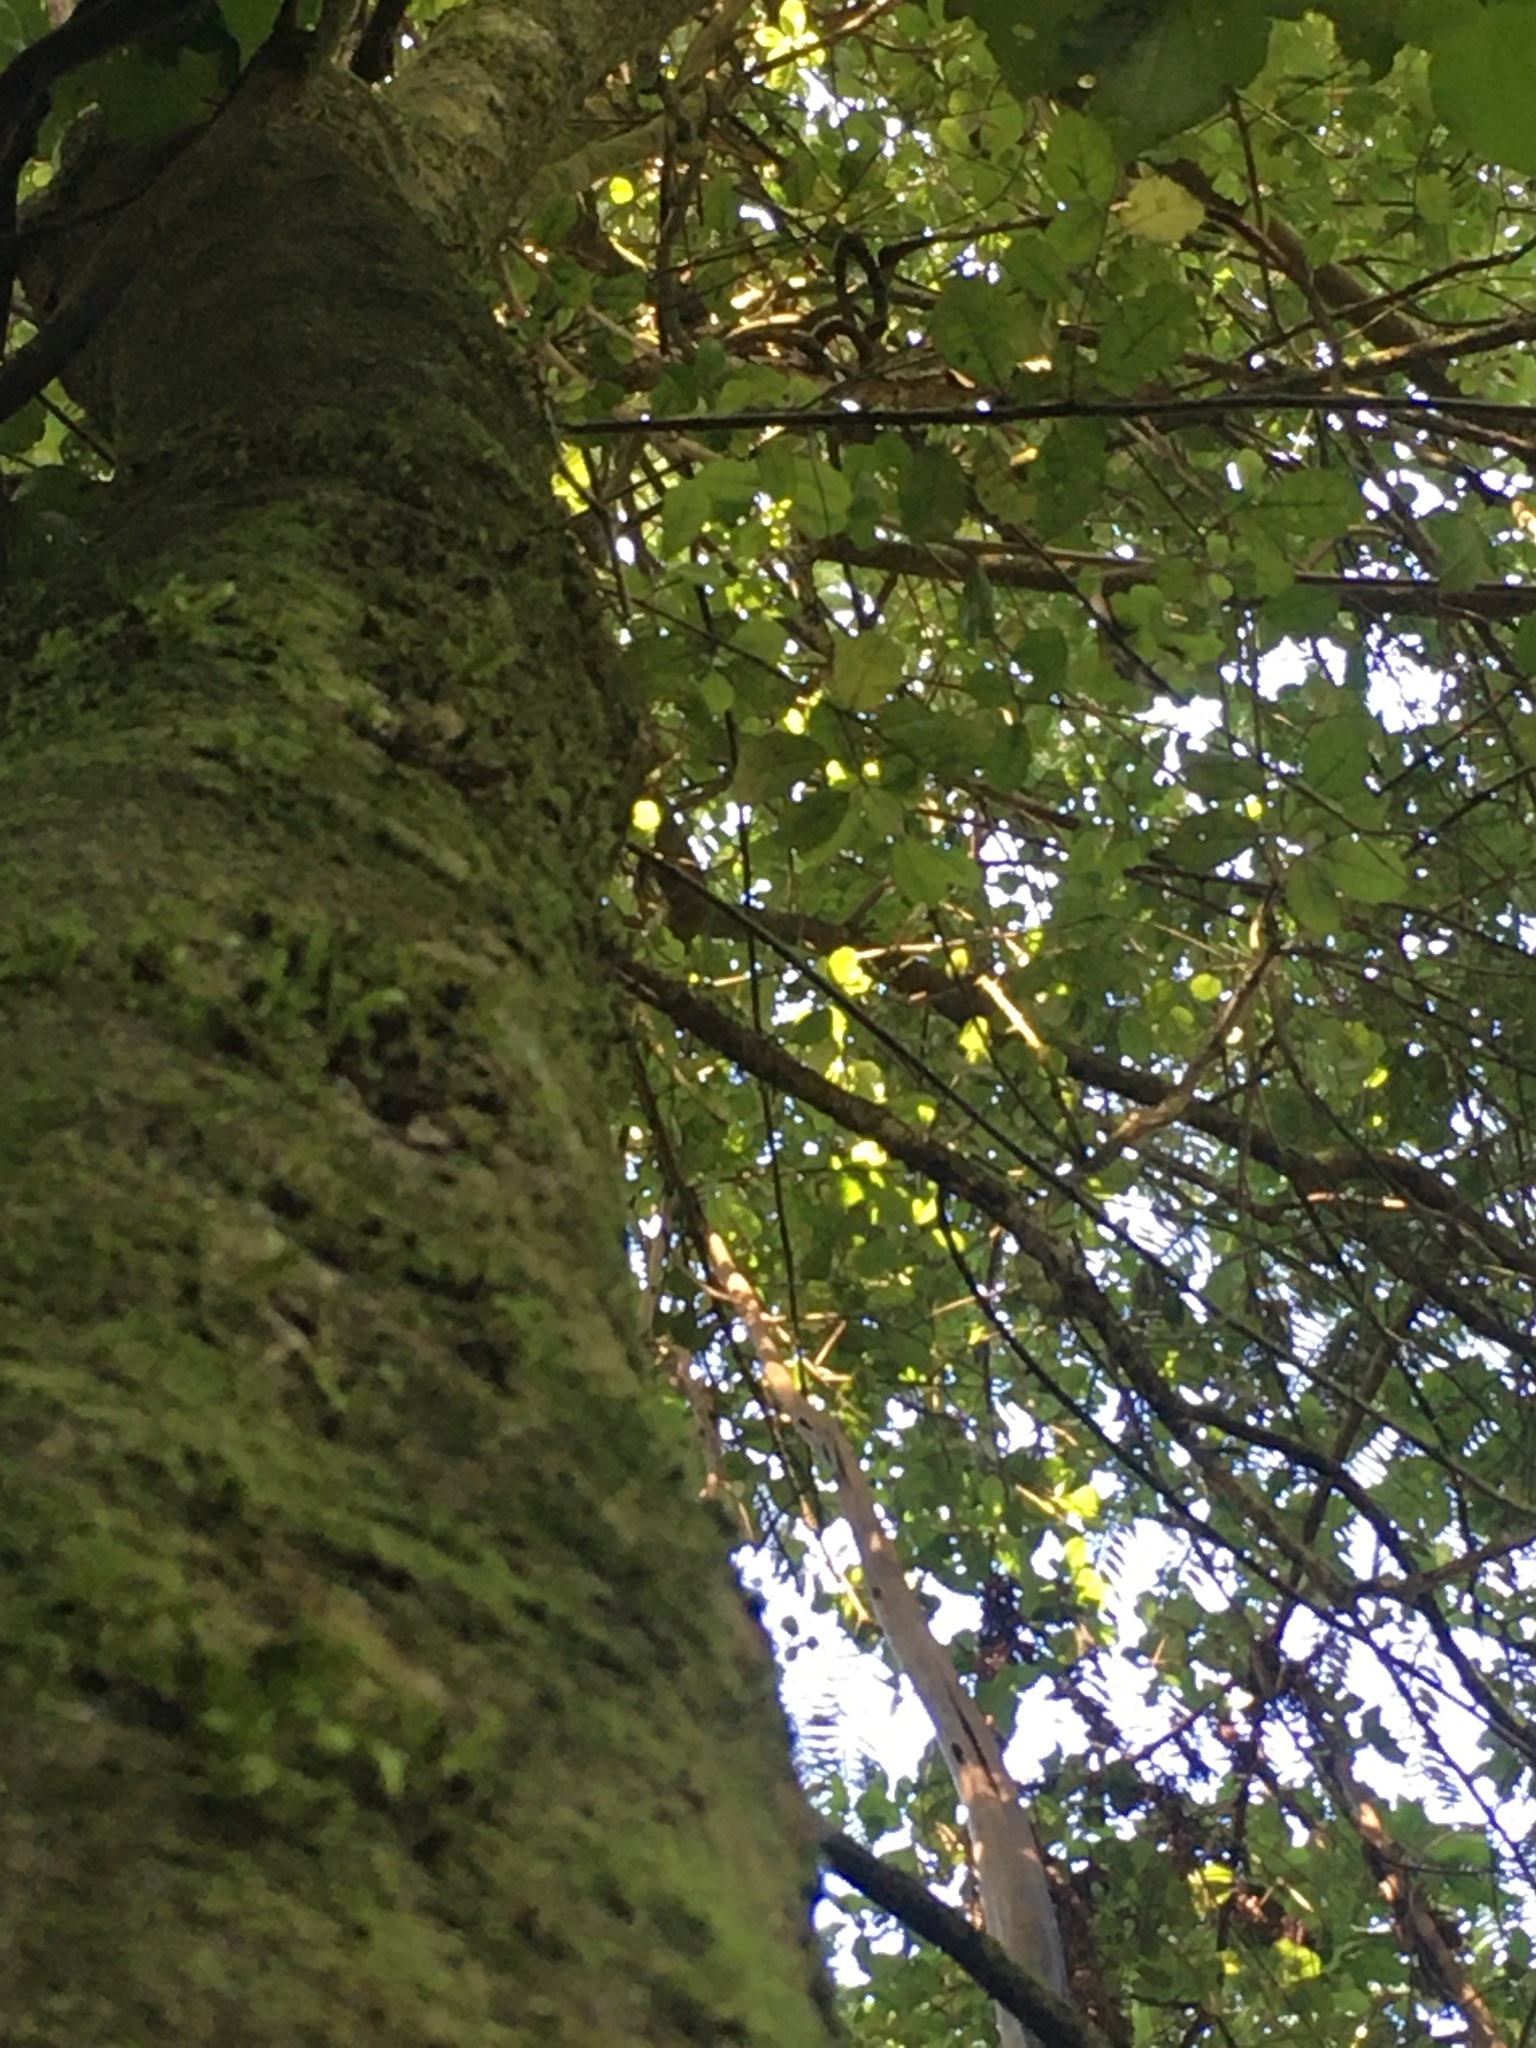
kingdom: Plantae
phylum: Tracheophyta
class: Magnoliopsida
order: Apiales
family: Pennantiaceae
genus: Pennantia
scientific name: Pennantia corymbosa
